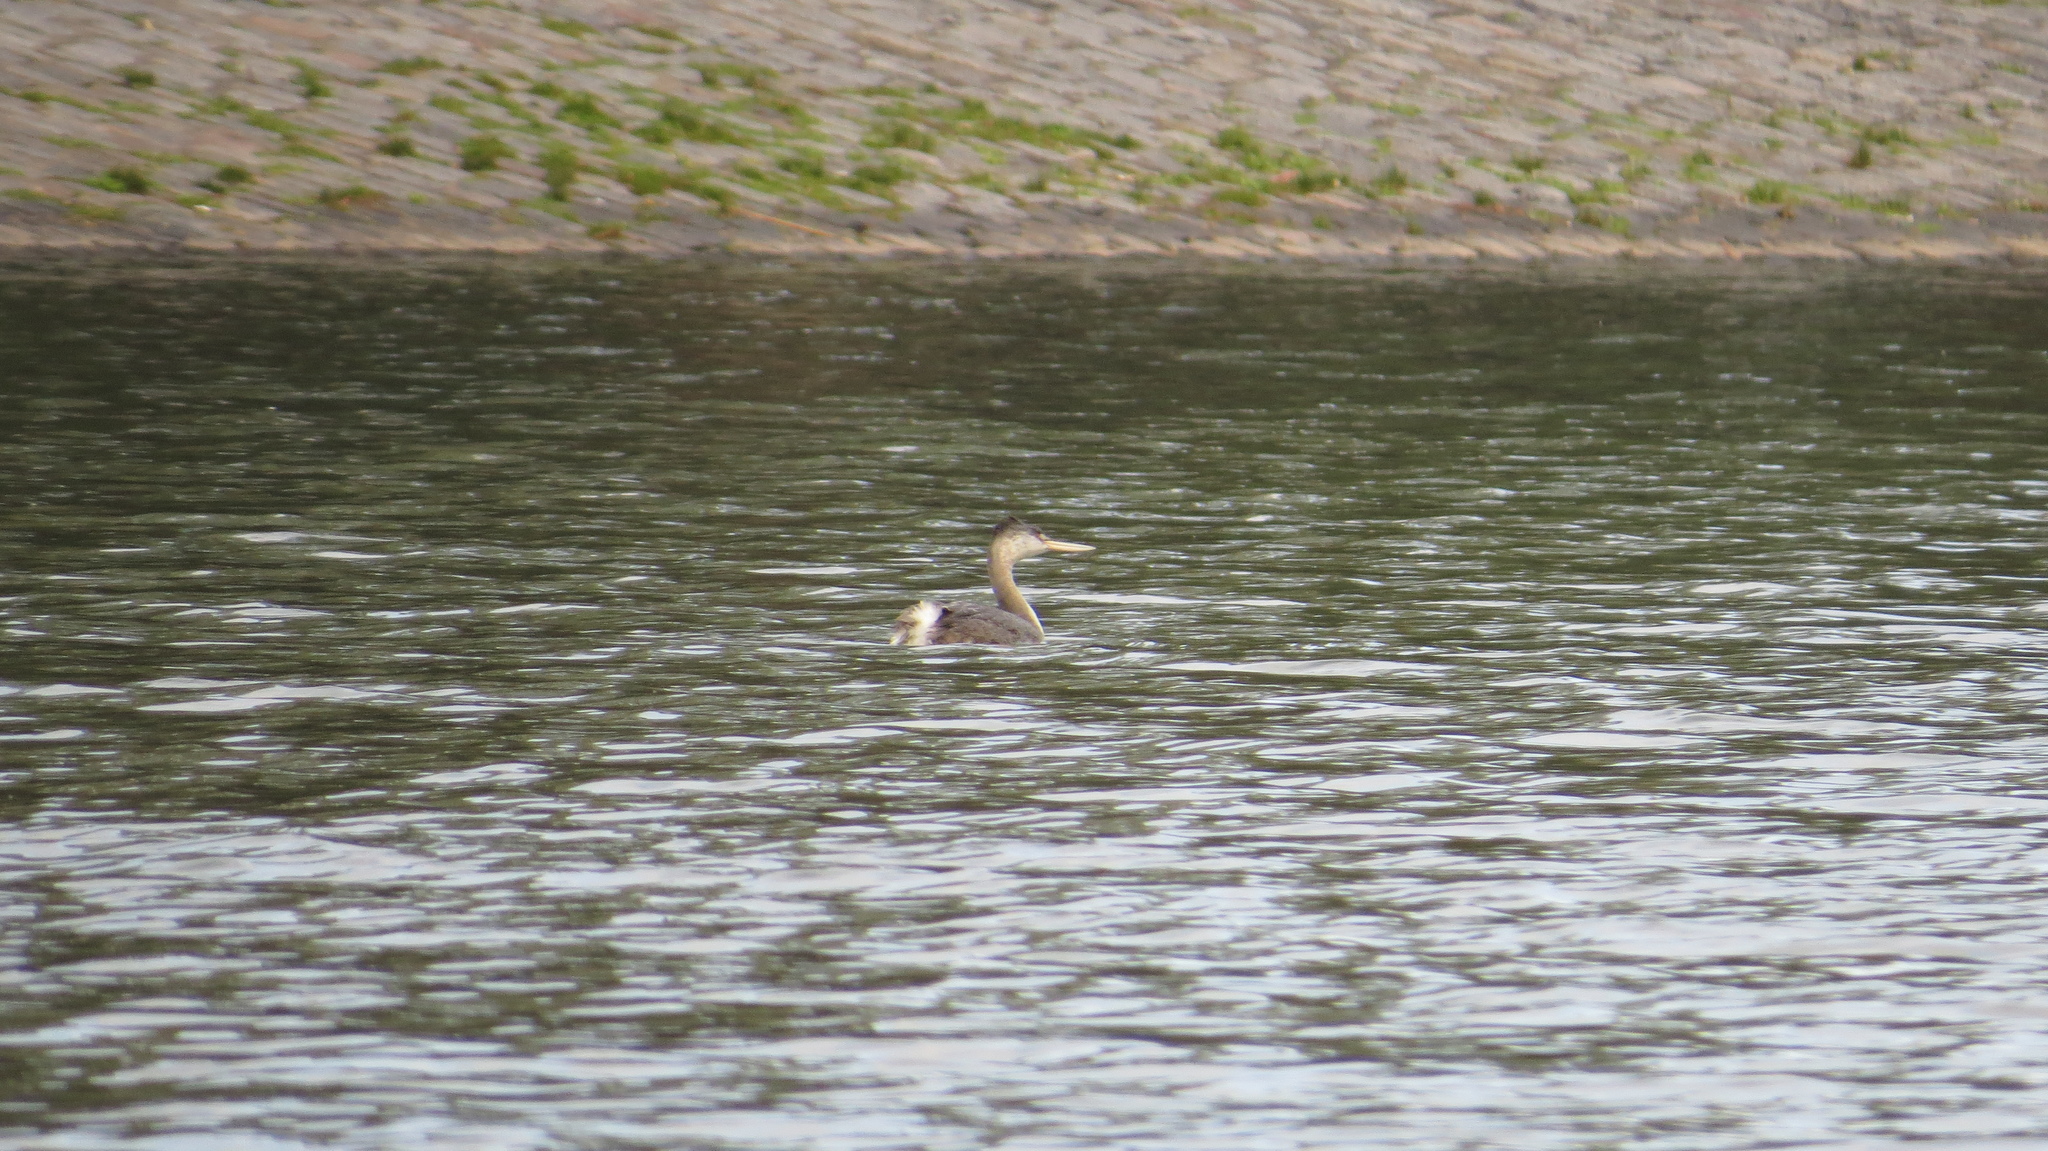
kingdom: Animalia
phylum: Chordata
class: Aves
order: Podicipediformes
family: Podicipedidae
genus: Podiceps
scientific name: Podiceps major
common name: Great grebe
